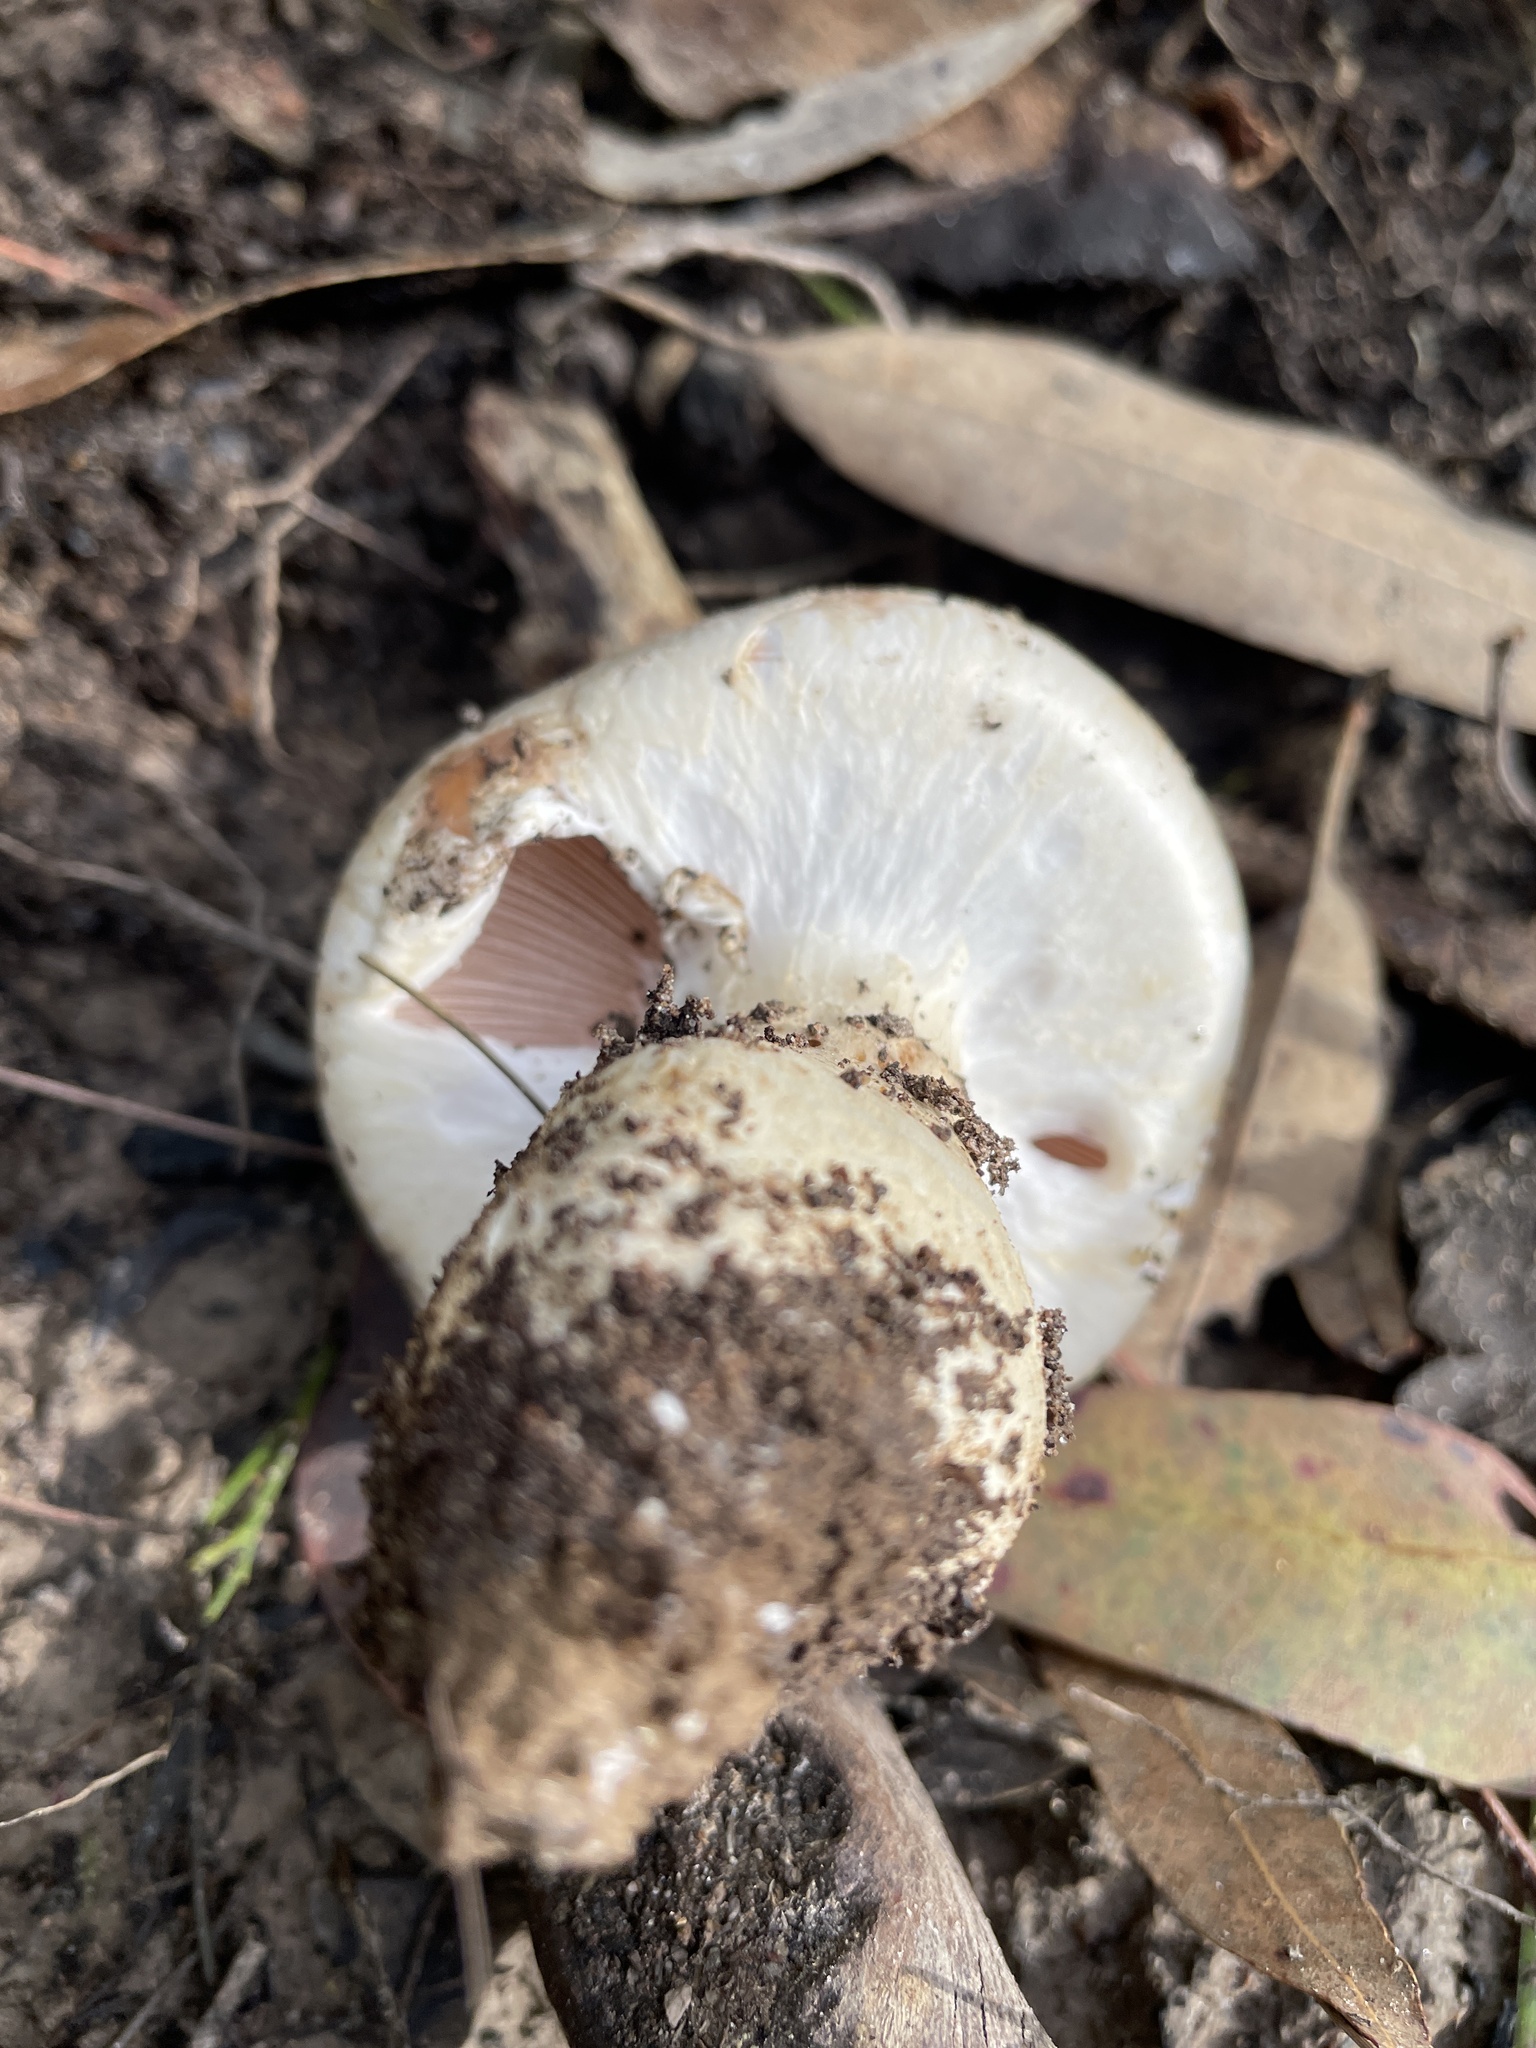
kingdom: Fungi
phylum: Basidiomycota
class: Agaricomycetes
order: Agaricales
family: Hymenogastraceae
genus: Hebeloma
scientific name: Hebeloma victoriense
